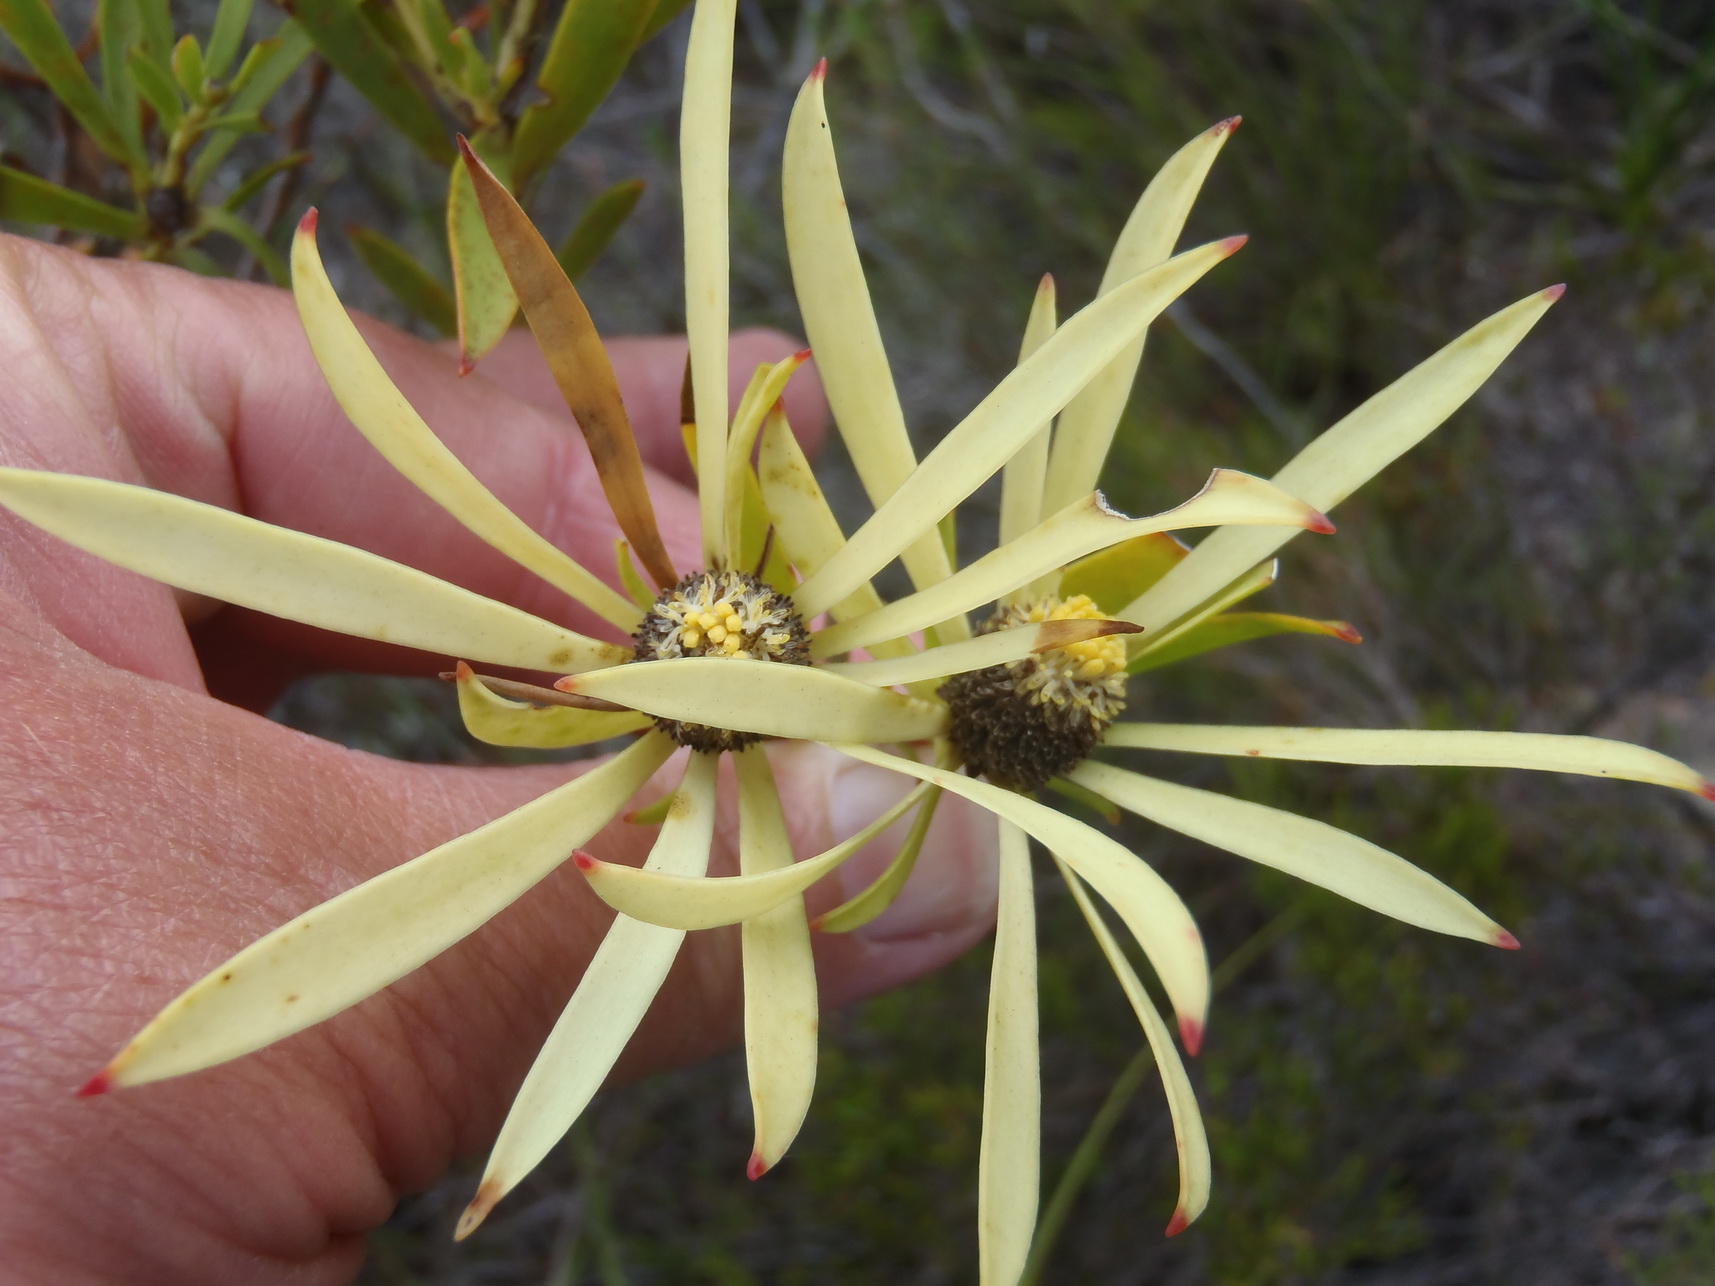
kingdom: Plantae
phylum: Tracheophyta
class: Magnoliopsida
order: Proteales
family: Proteaceae
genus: Leucadendron
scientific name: Leucadendron salignum
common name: Common sunshine conebush
